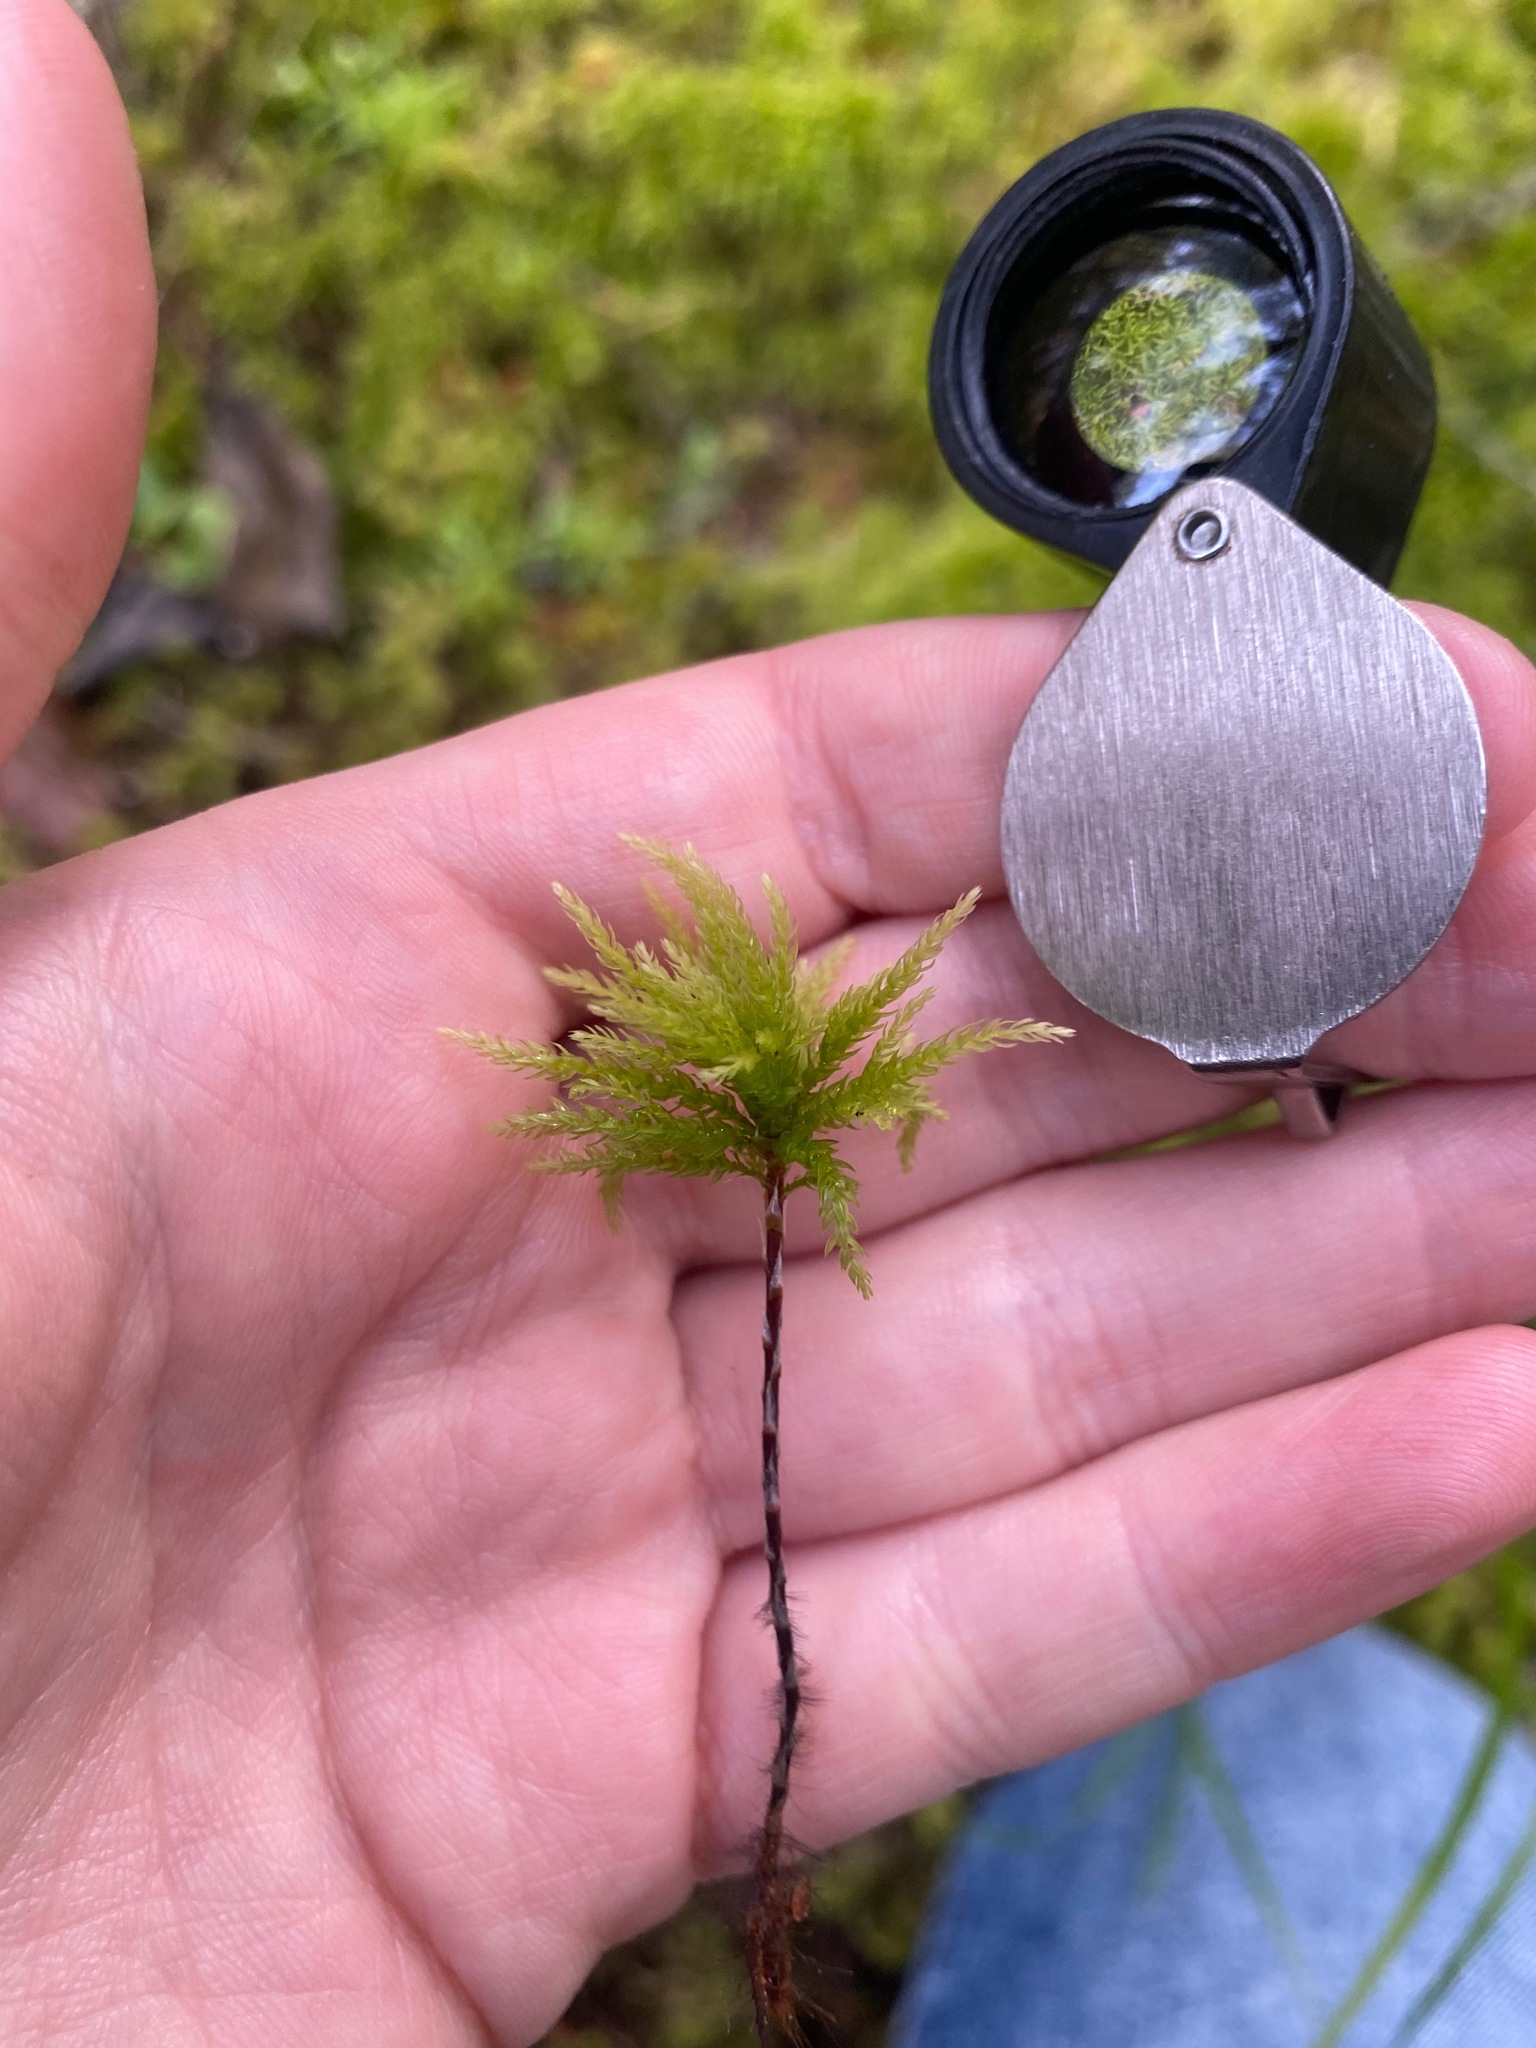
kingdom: Plantae
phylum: Bryophyta
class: Bryopsida
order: Bryales
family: Mniaceae
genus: Leucolepis
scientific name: Leucolepis acanthoneura
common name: Leucolepis umbrella moss
